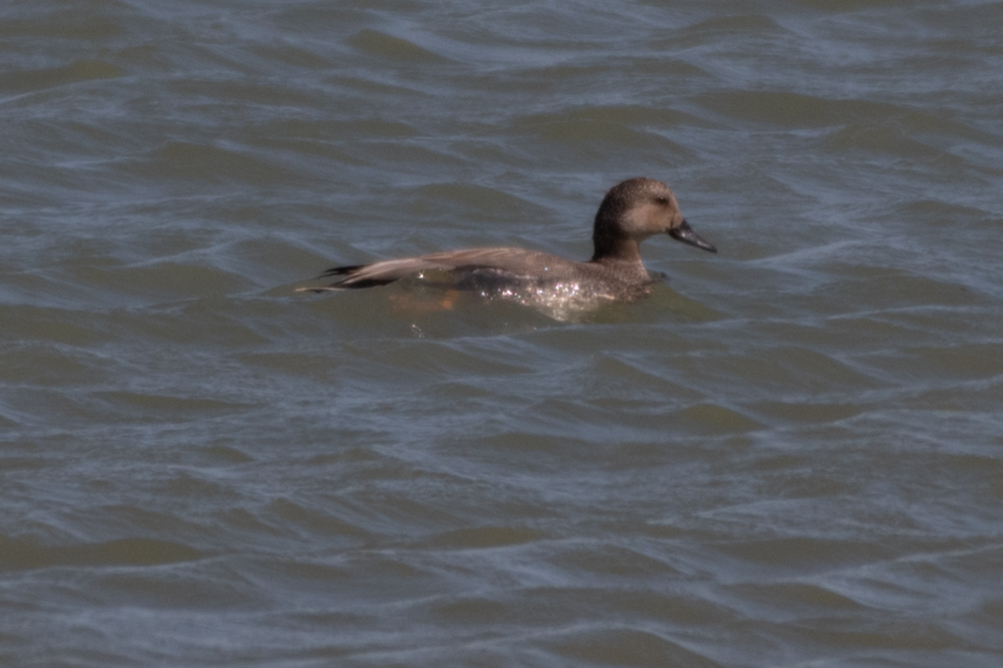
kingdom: Animalia
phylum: Chordata
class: Aves
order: Anseriformes
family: Anatidae
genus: Mareca
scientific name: Mareca strepera
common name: Gadwall
